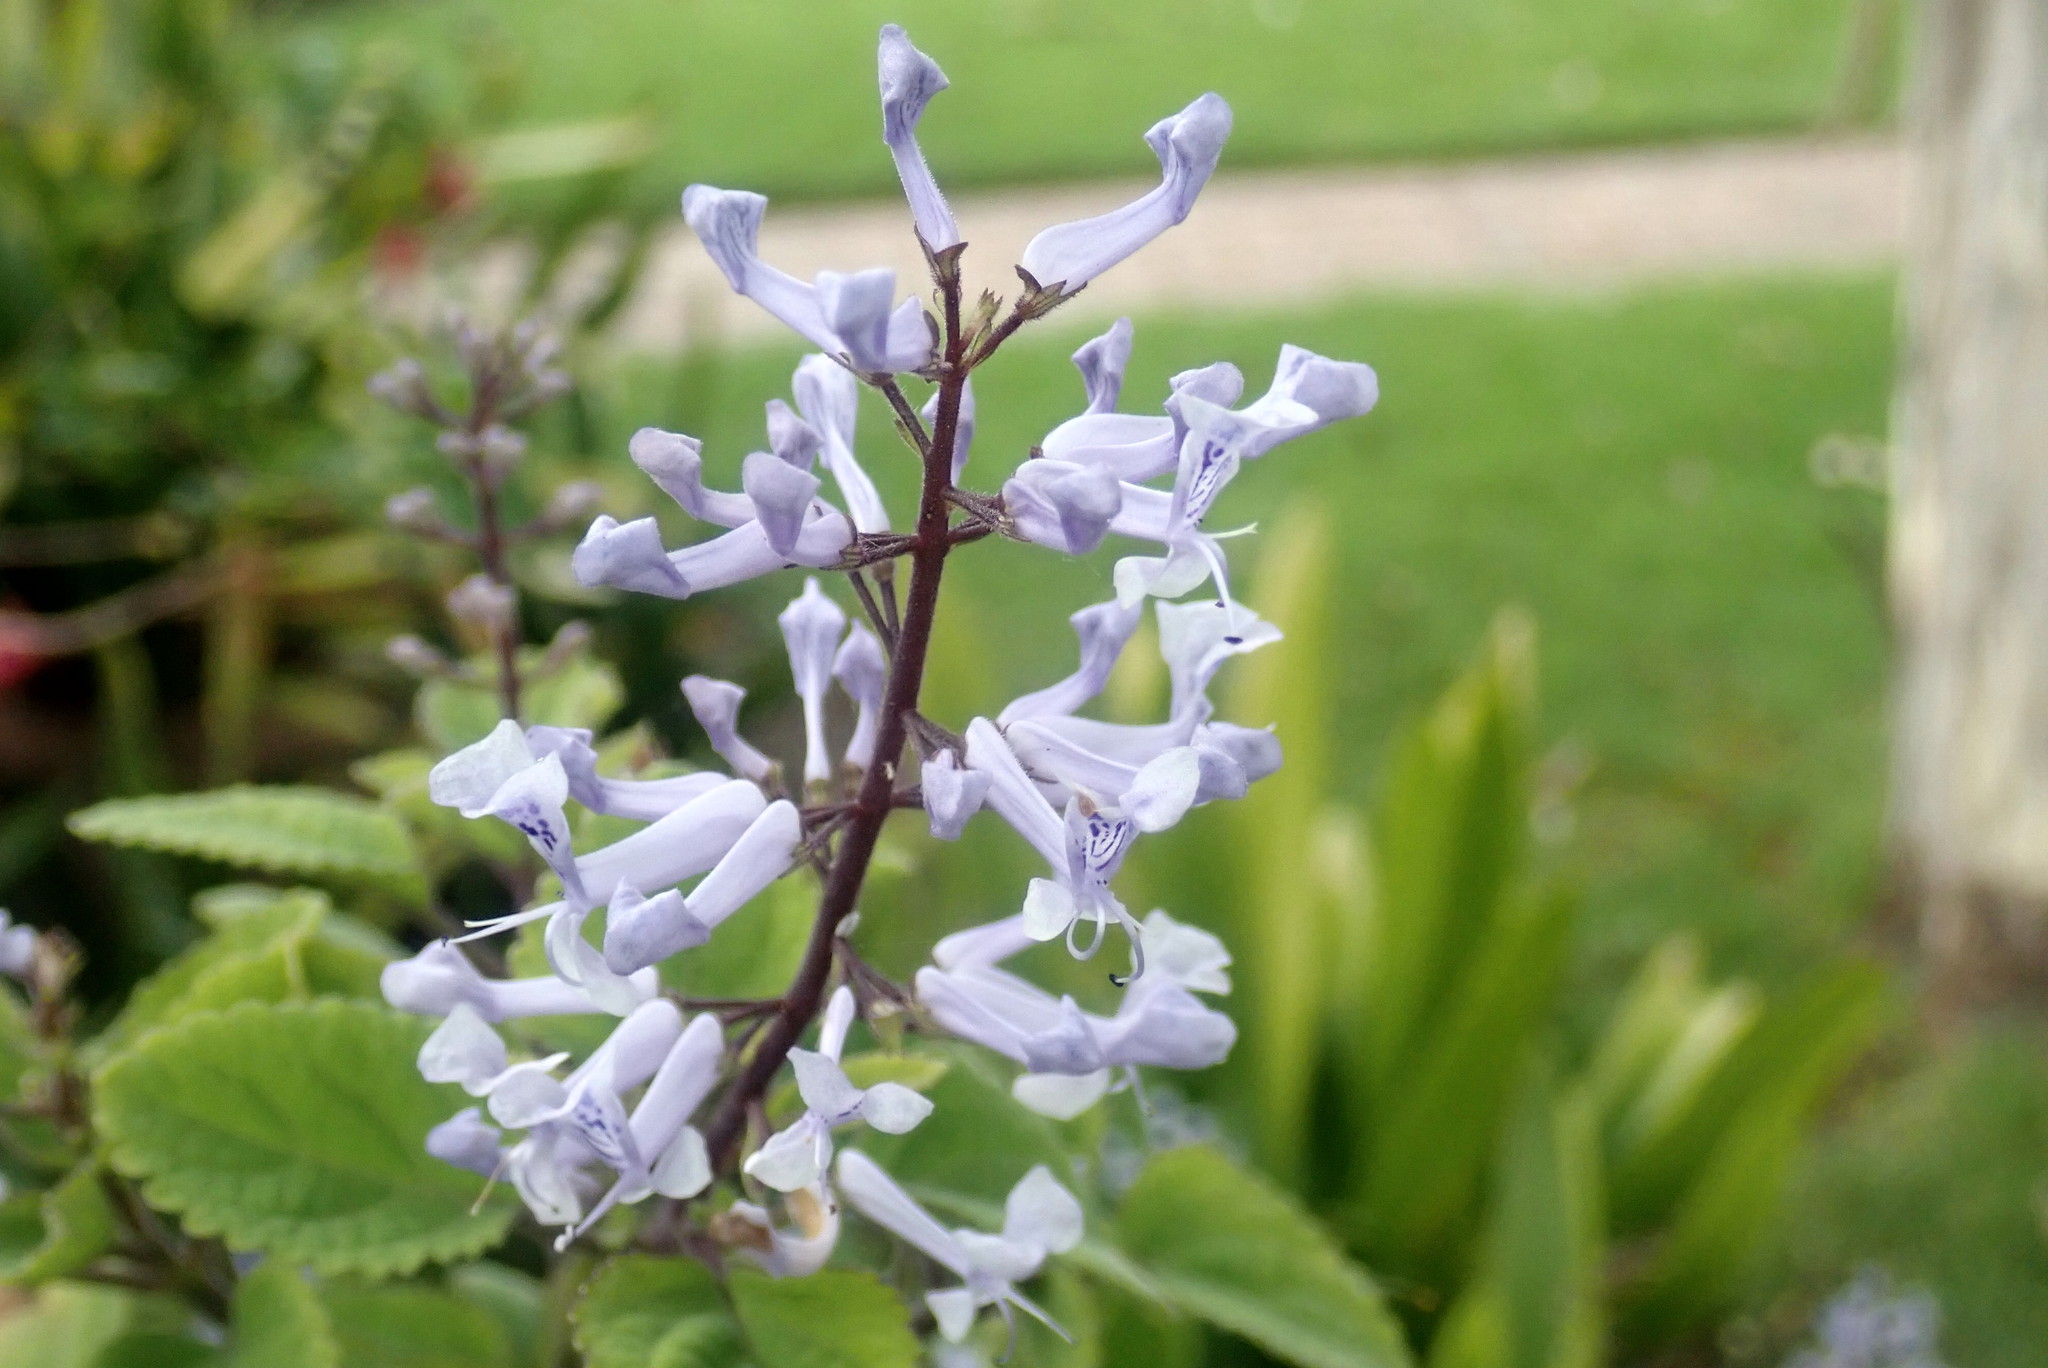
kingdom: Plantae
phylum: Tracheophyta
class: Magnoliopsida
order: Lamiales
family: Lamiaceae
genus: Plectranthus
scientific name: Plectranthus zuluensis
